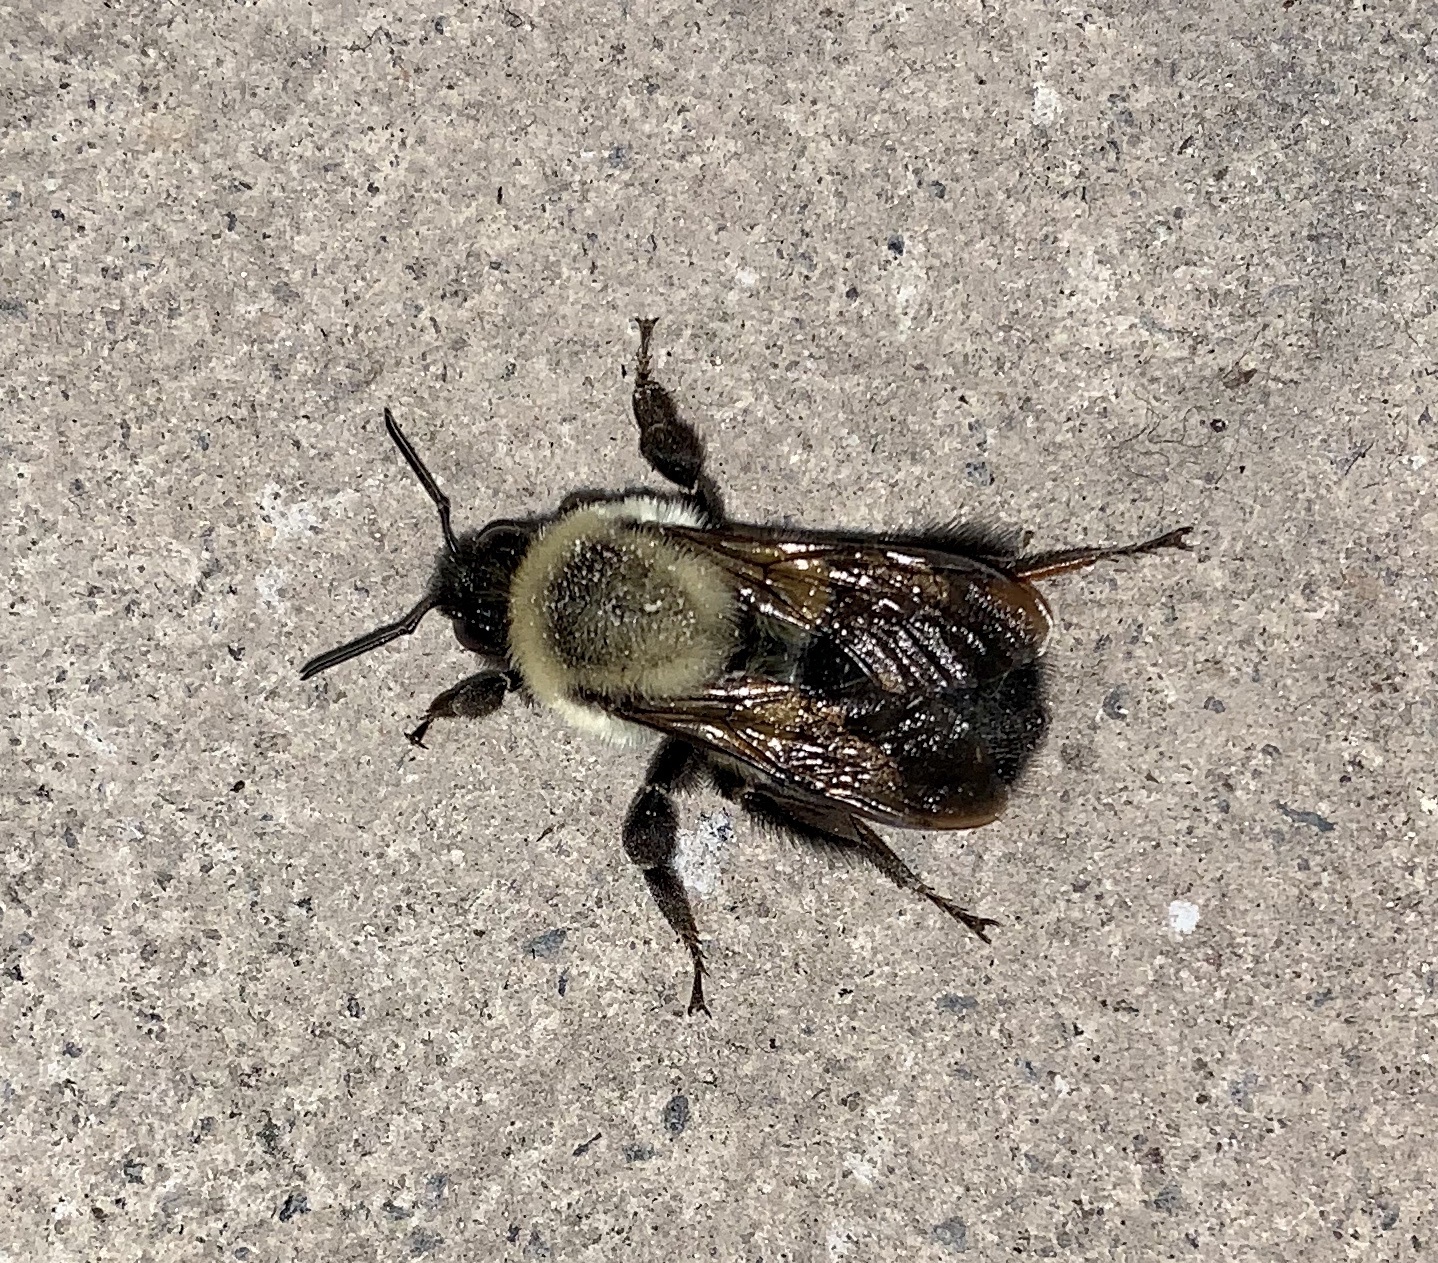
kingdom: Animalia
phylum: Arthropoda
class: Insecta
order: Hymenoptera
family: Apidae
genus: Bombus
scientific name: Bombus impatiens
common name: Common eastern bumble bee
